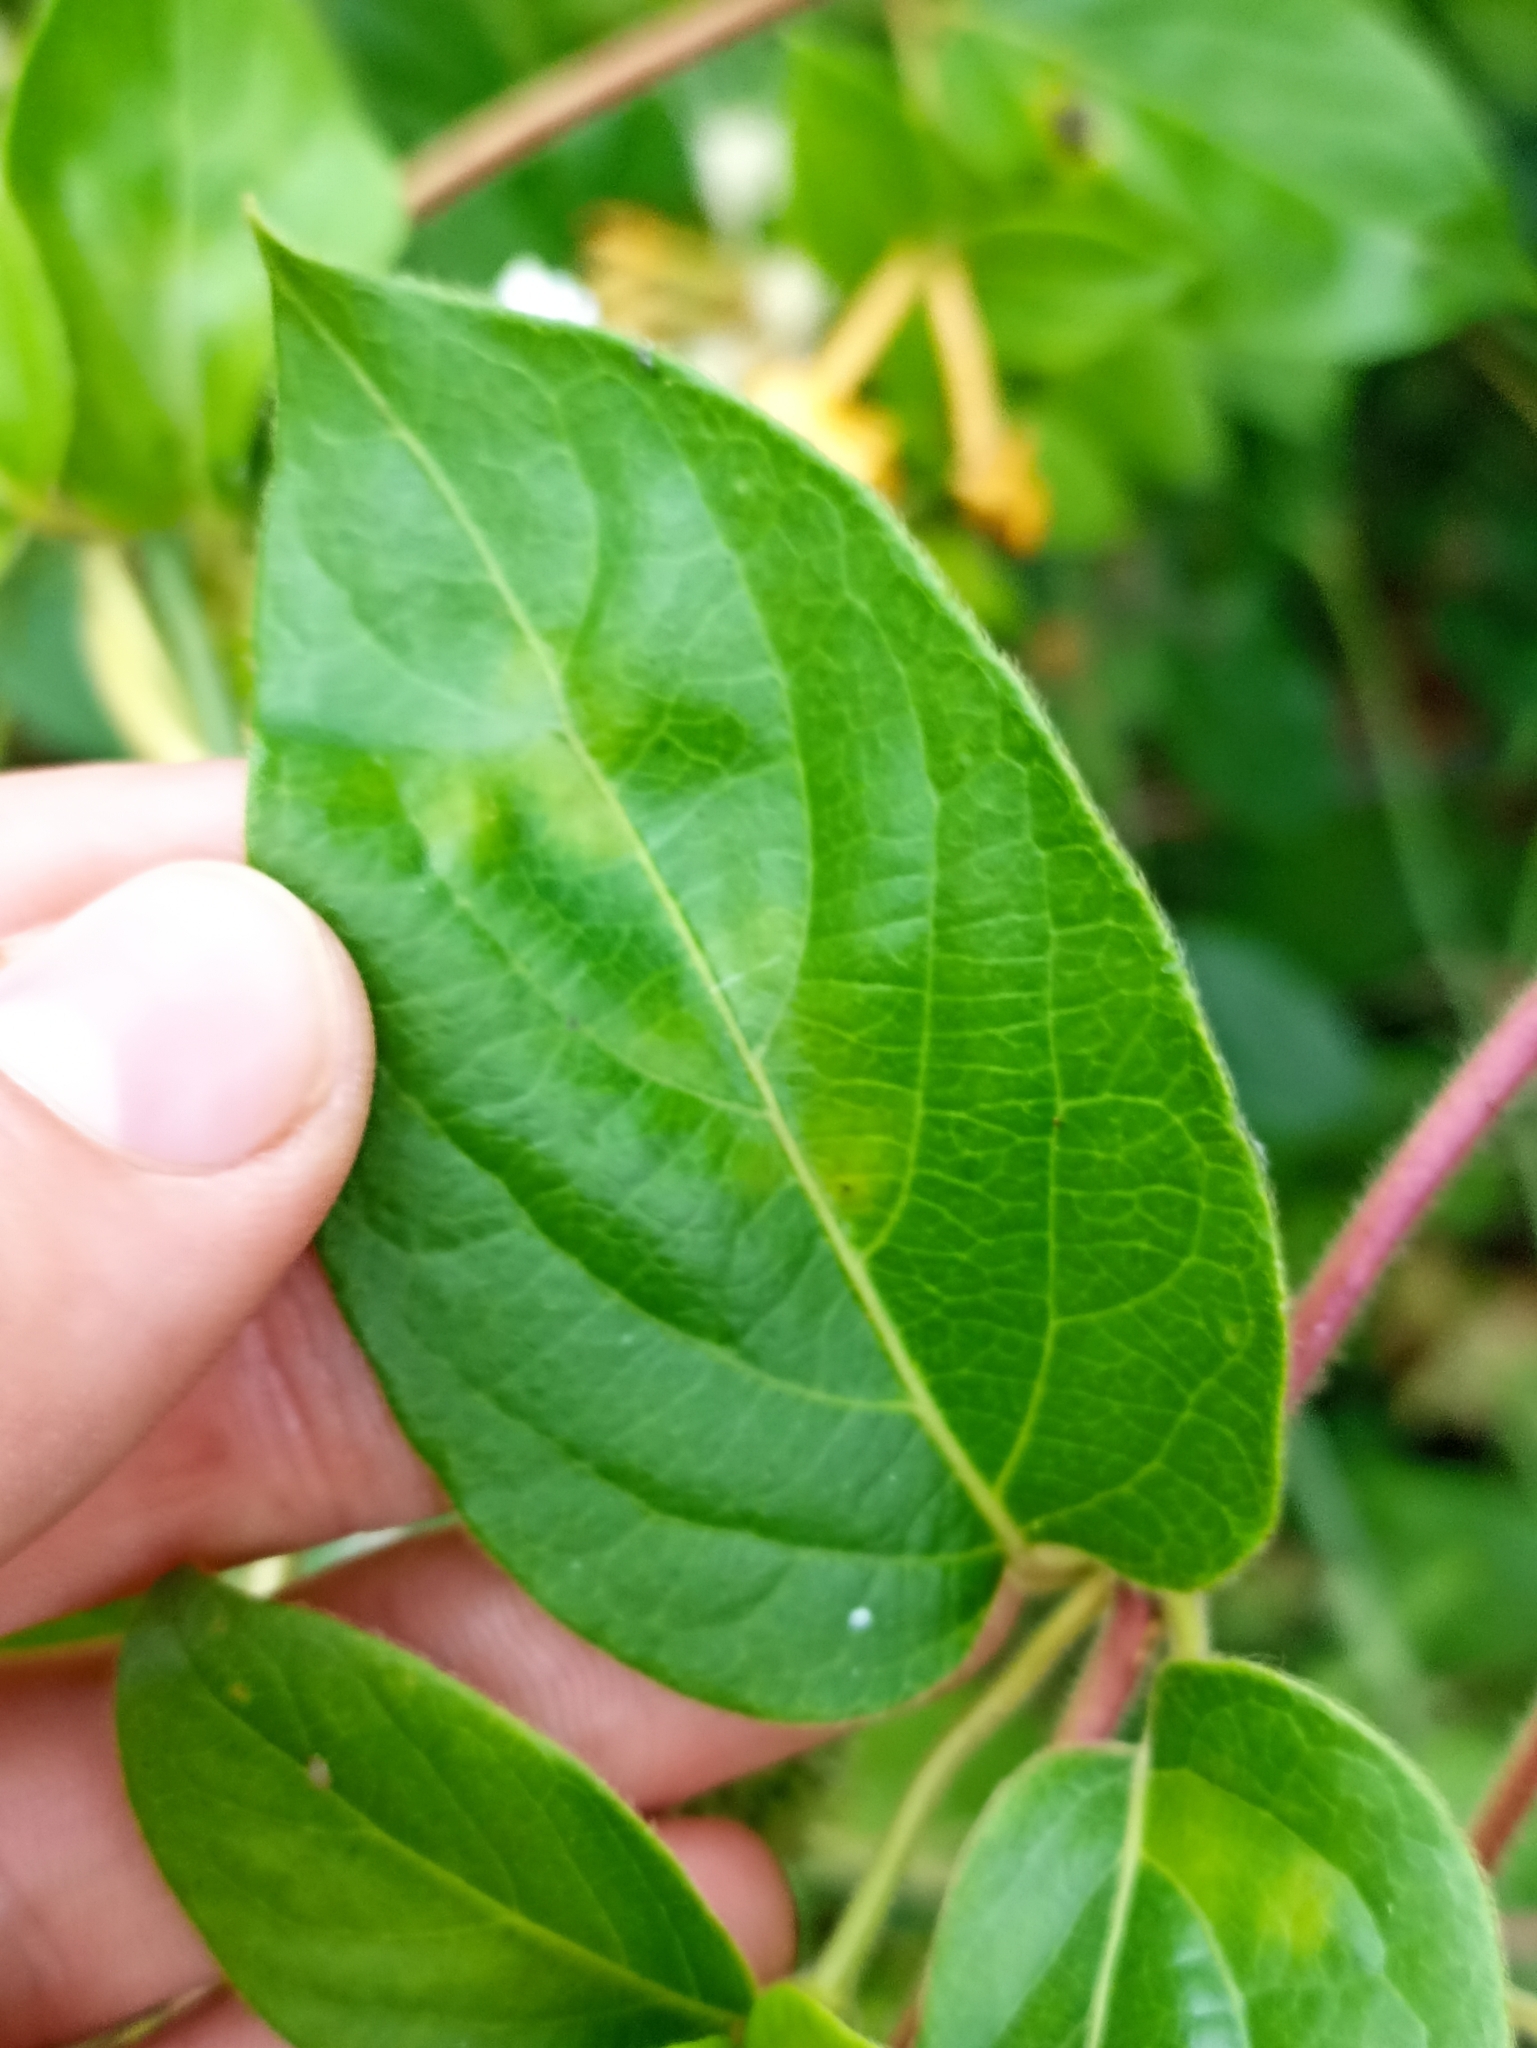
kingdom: Plantae
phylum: Tracheophyta
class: Magnoliopsida
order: Dipsacales
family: Caprifoliaceae
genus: Lonicera
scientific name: Lonicera japonica
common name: Japanese honeysuckle
